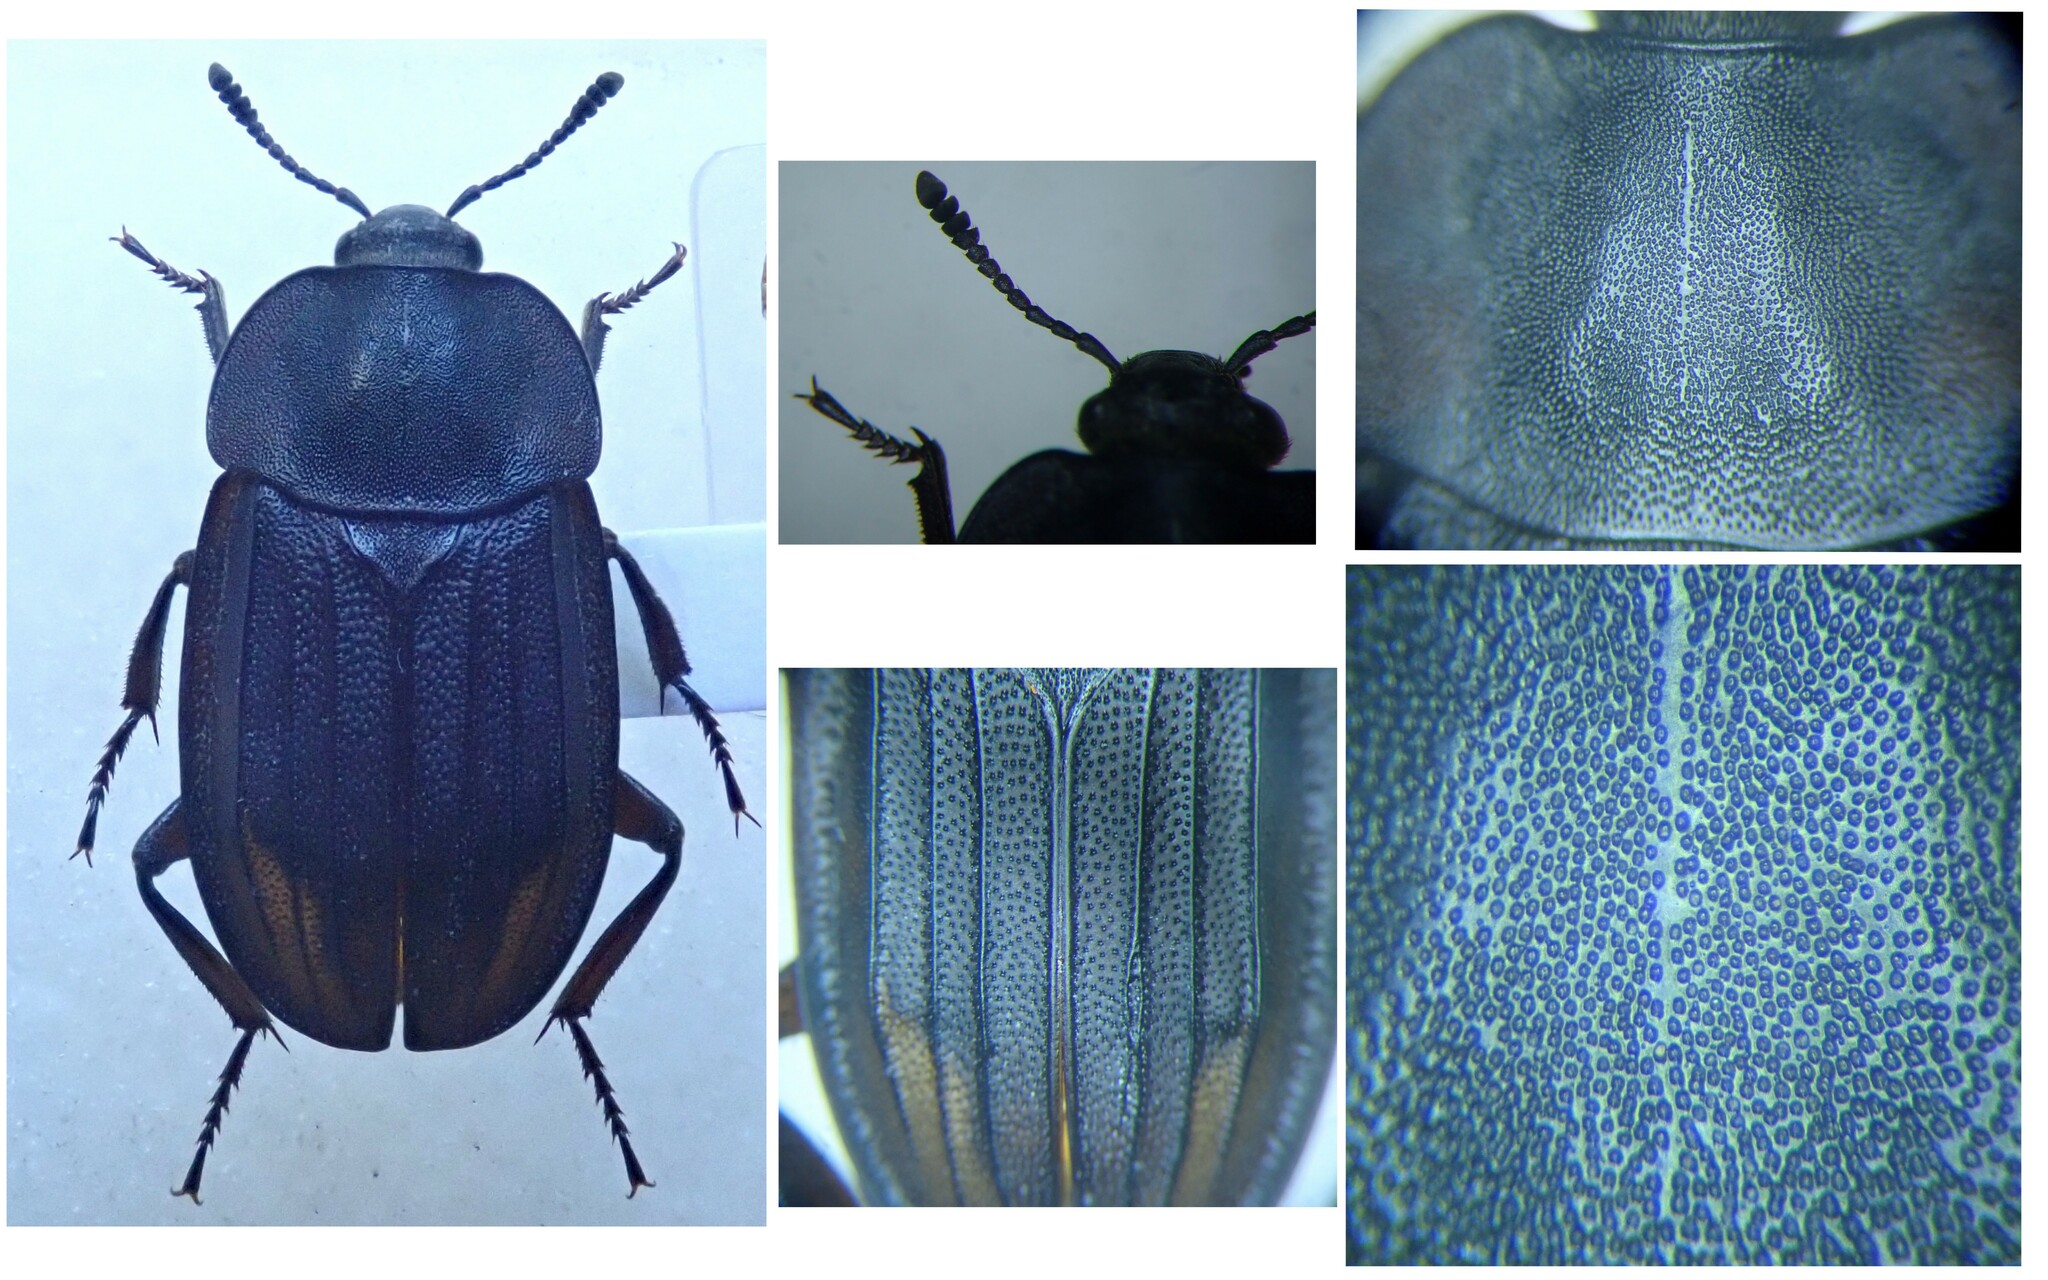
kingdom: Animalia
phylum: Arthropoda
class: Insecta
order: Coleoptera
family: Staphylinidae
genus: Silpha
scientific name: Silpha puncticollis
